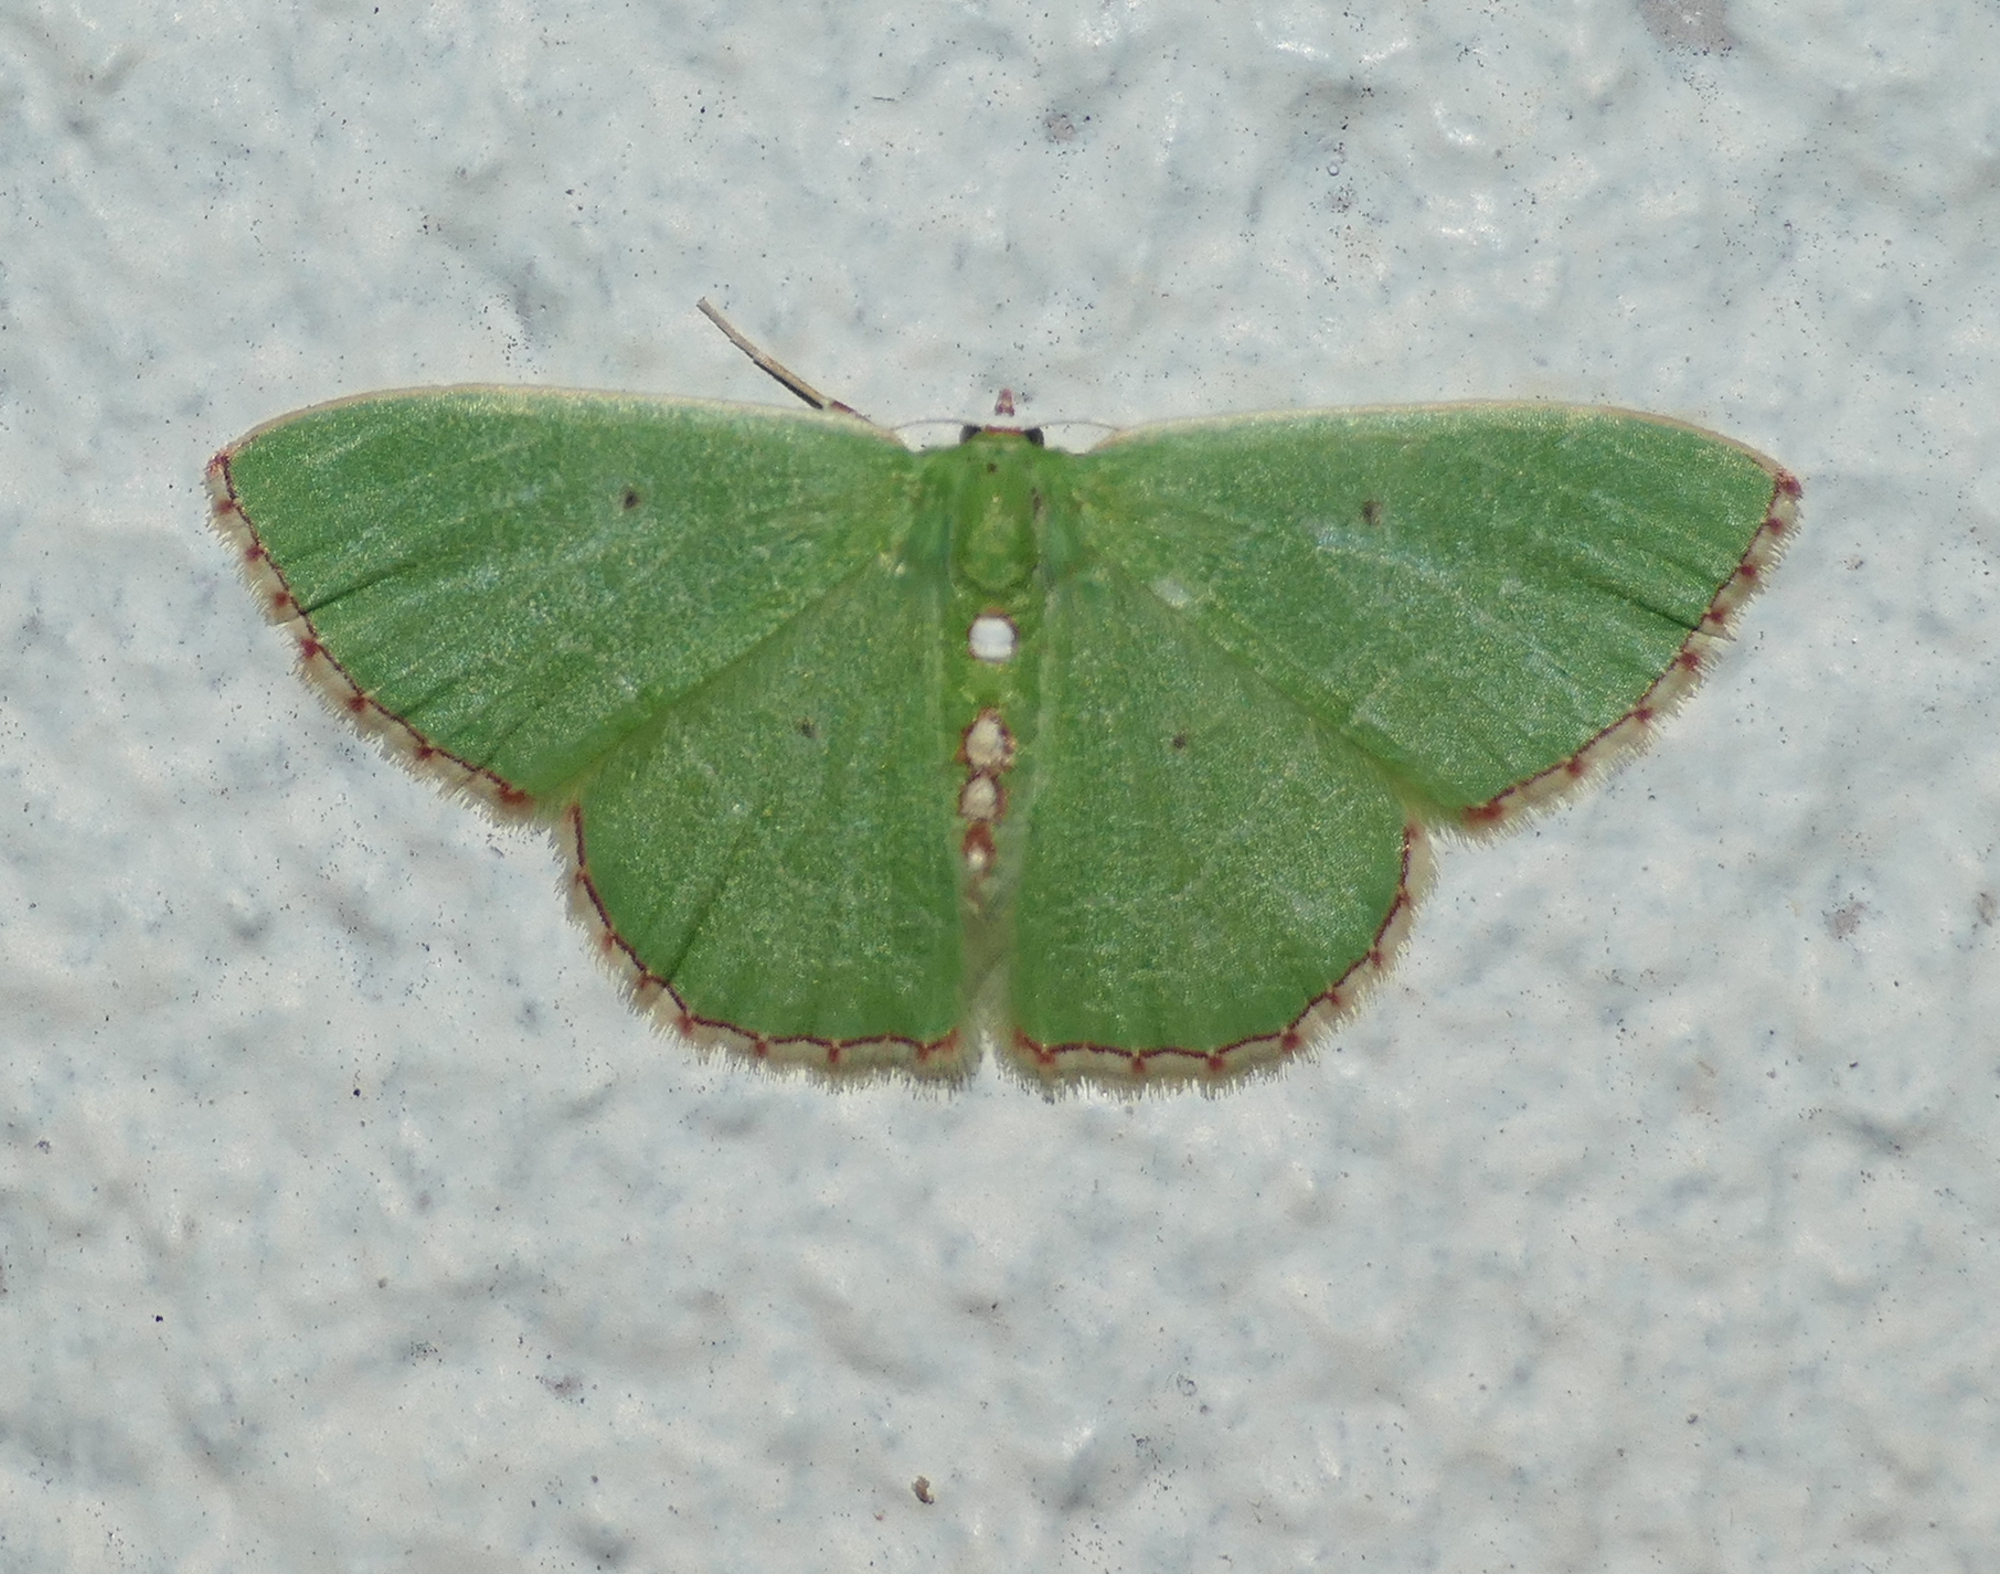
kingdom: Animalia
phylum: Arthropoda
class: Insecta
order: Lepidoptera
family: Geometridae
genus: Nemoria
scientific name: Nemoria lixaria
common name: Red-bordered emerald
